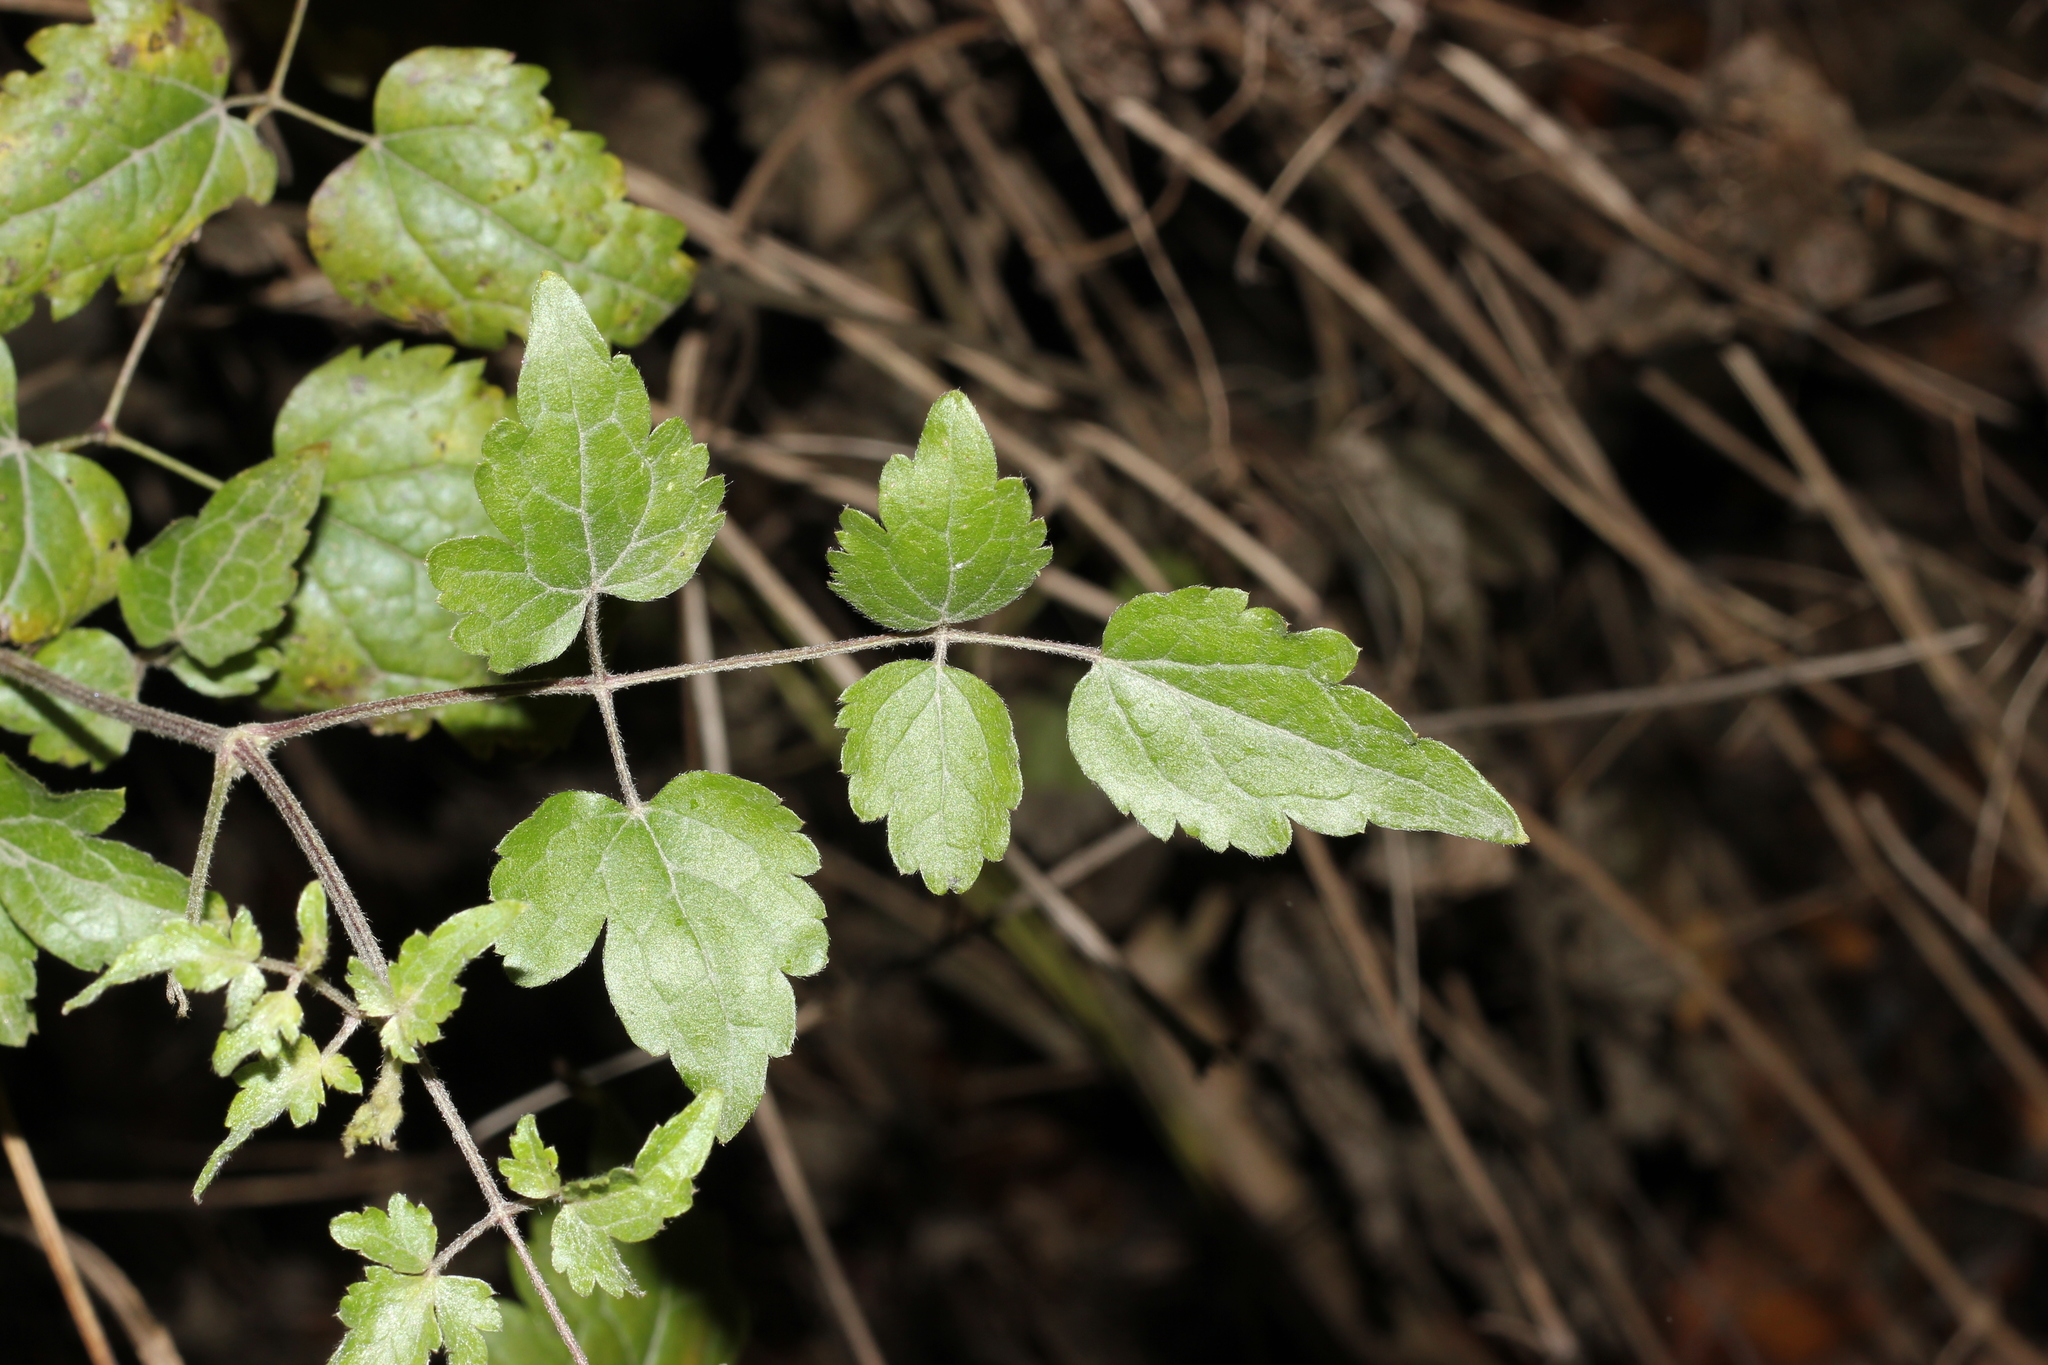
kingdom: Plantae
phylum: Tracheophyta
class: Magnoliopsida
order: Ranunculales
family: Ranunculaceae
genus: Clematis
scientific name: Clematis vitalba
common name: Evergreen clematis
